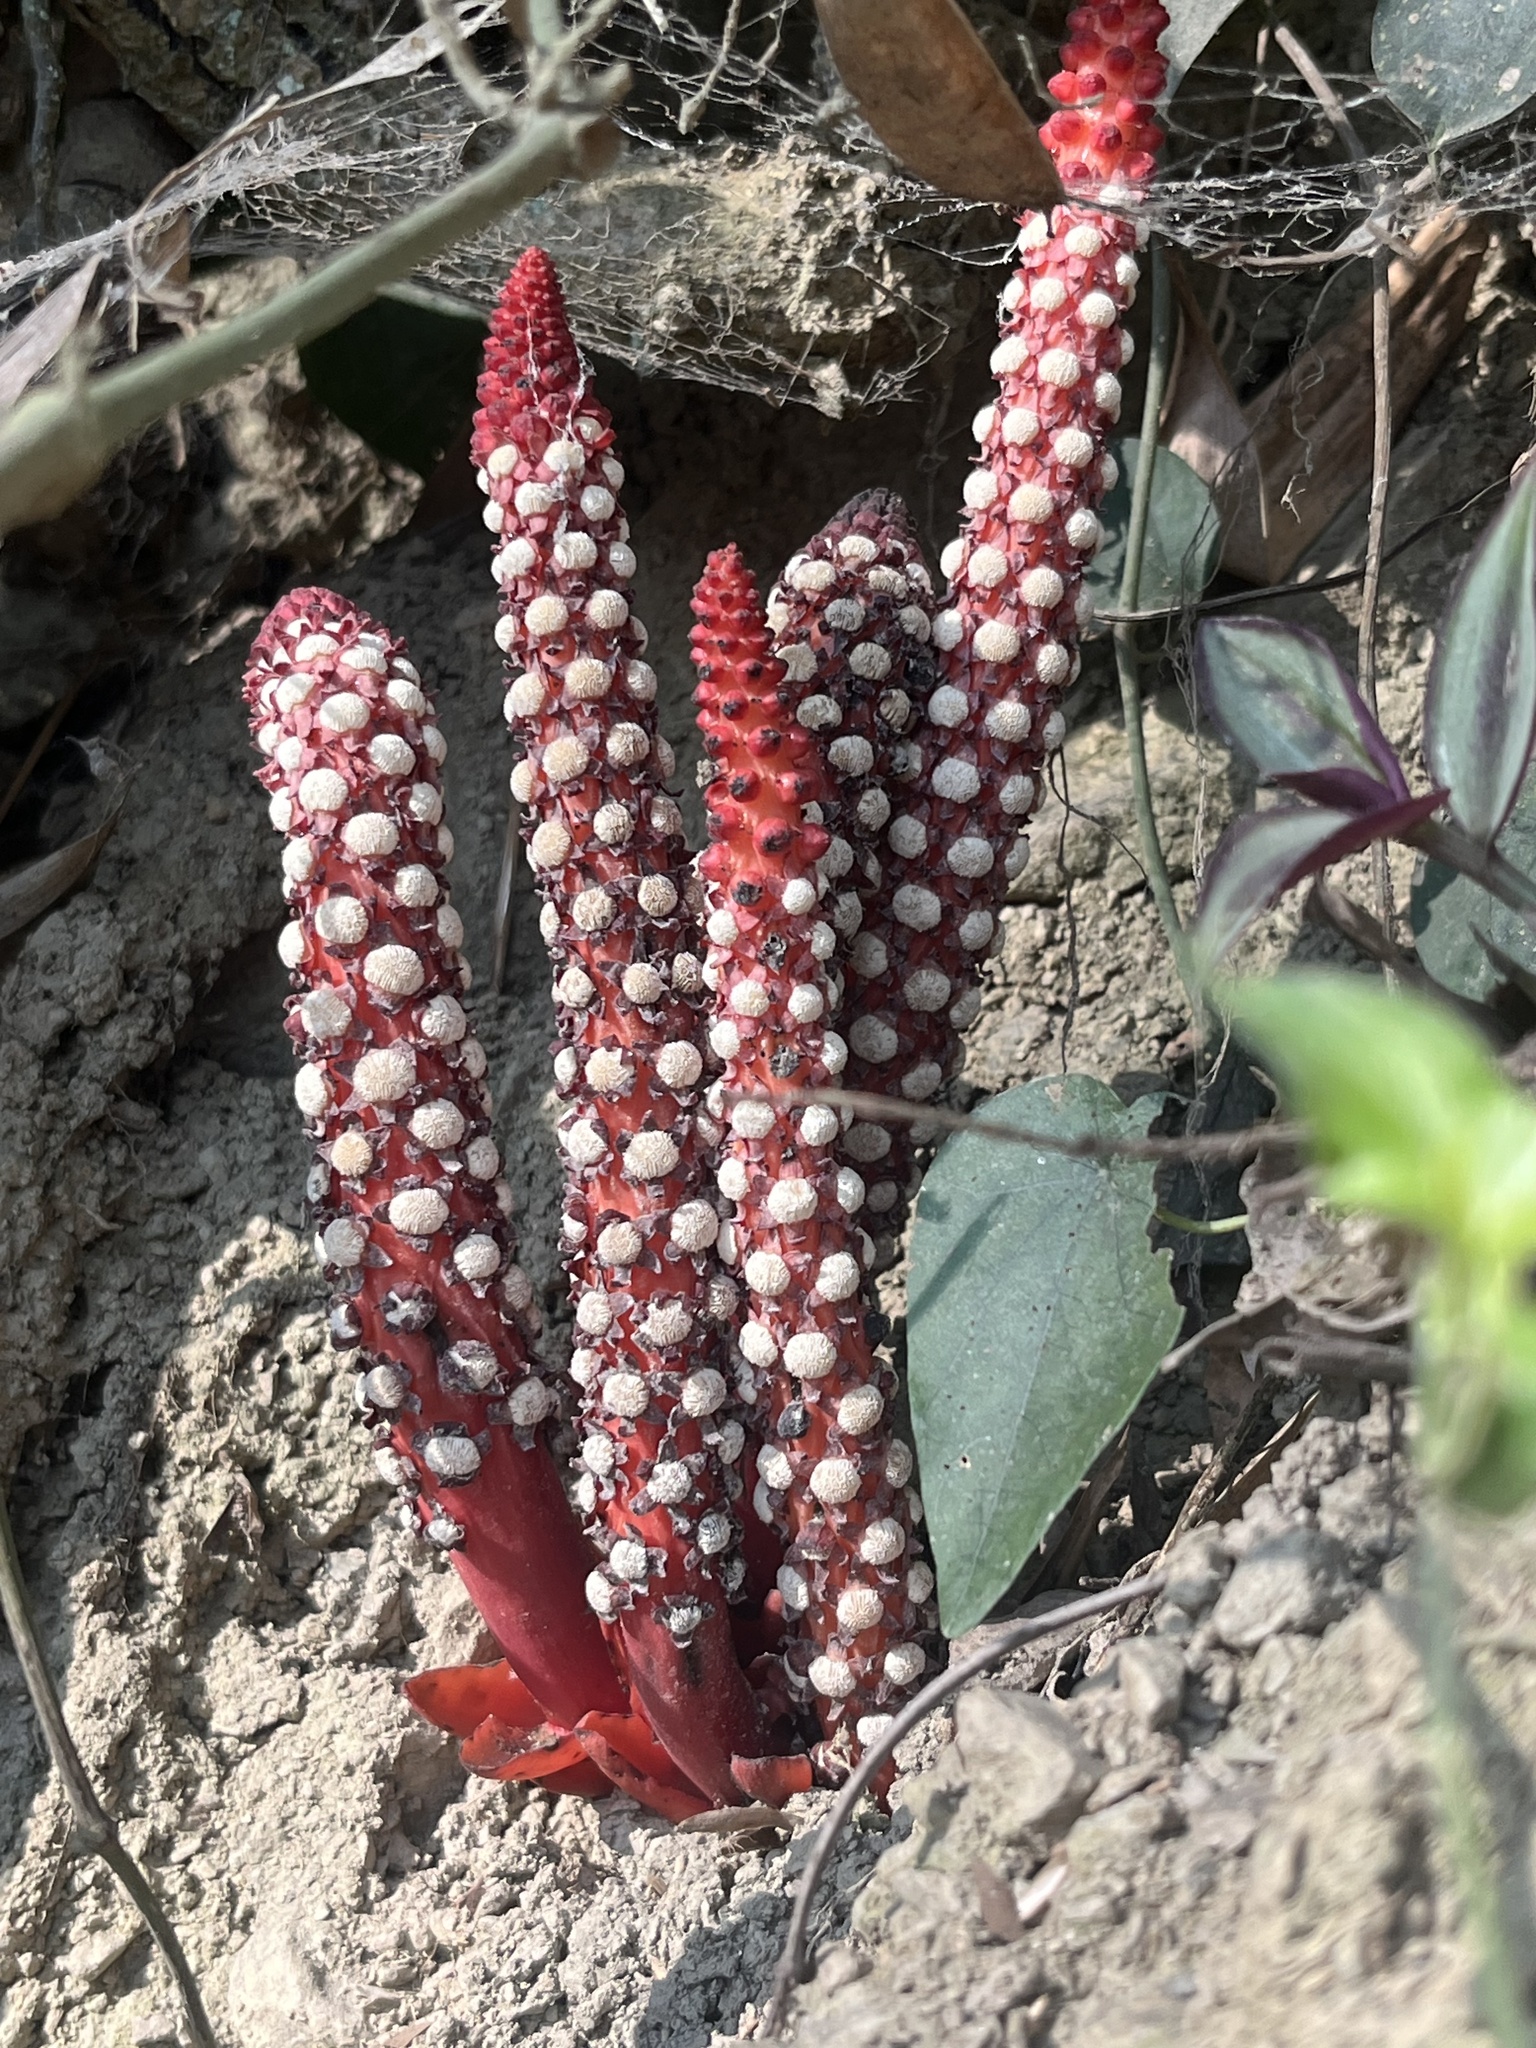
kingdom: Plantae
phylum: Tracheophyta
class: Magnoliopsida
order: Santalales
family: Balanophoraceae
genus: Balanophora
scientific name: Balanophora laxiflora
